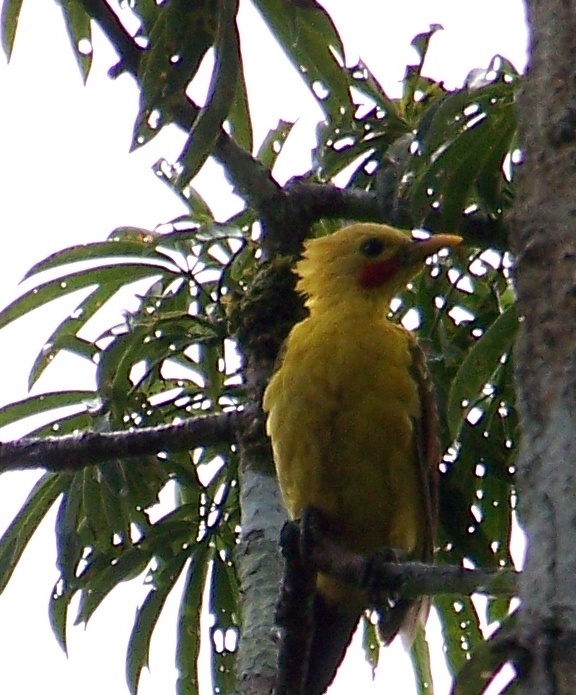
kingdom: Animalia
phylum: Chordata
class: Aves
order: Piciformes
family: Picidae
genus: Celeus
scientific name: Celeus flavus
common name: Cream-colored woodpecker
